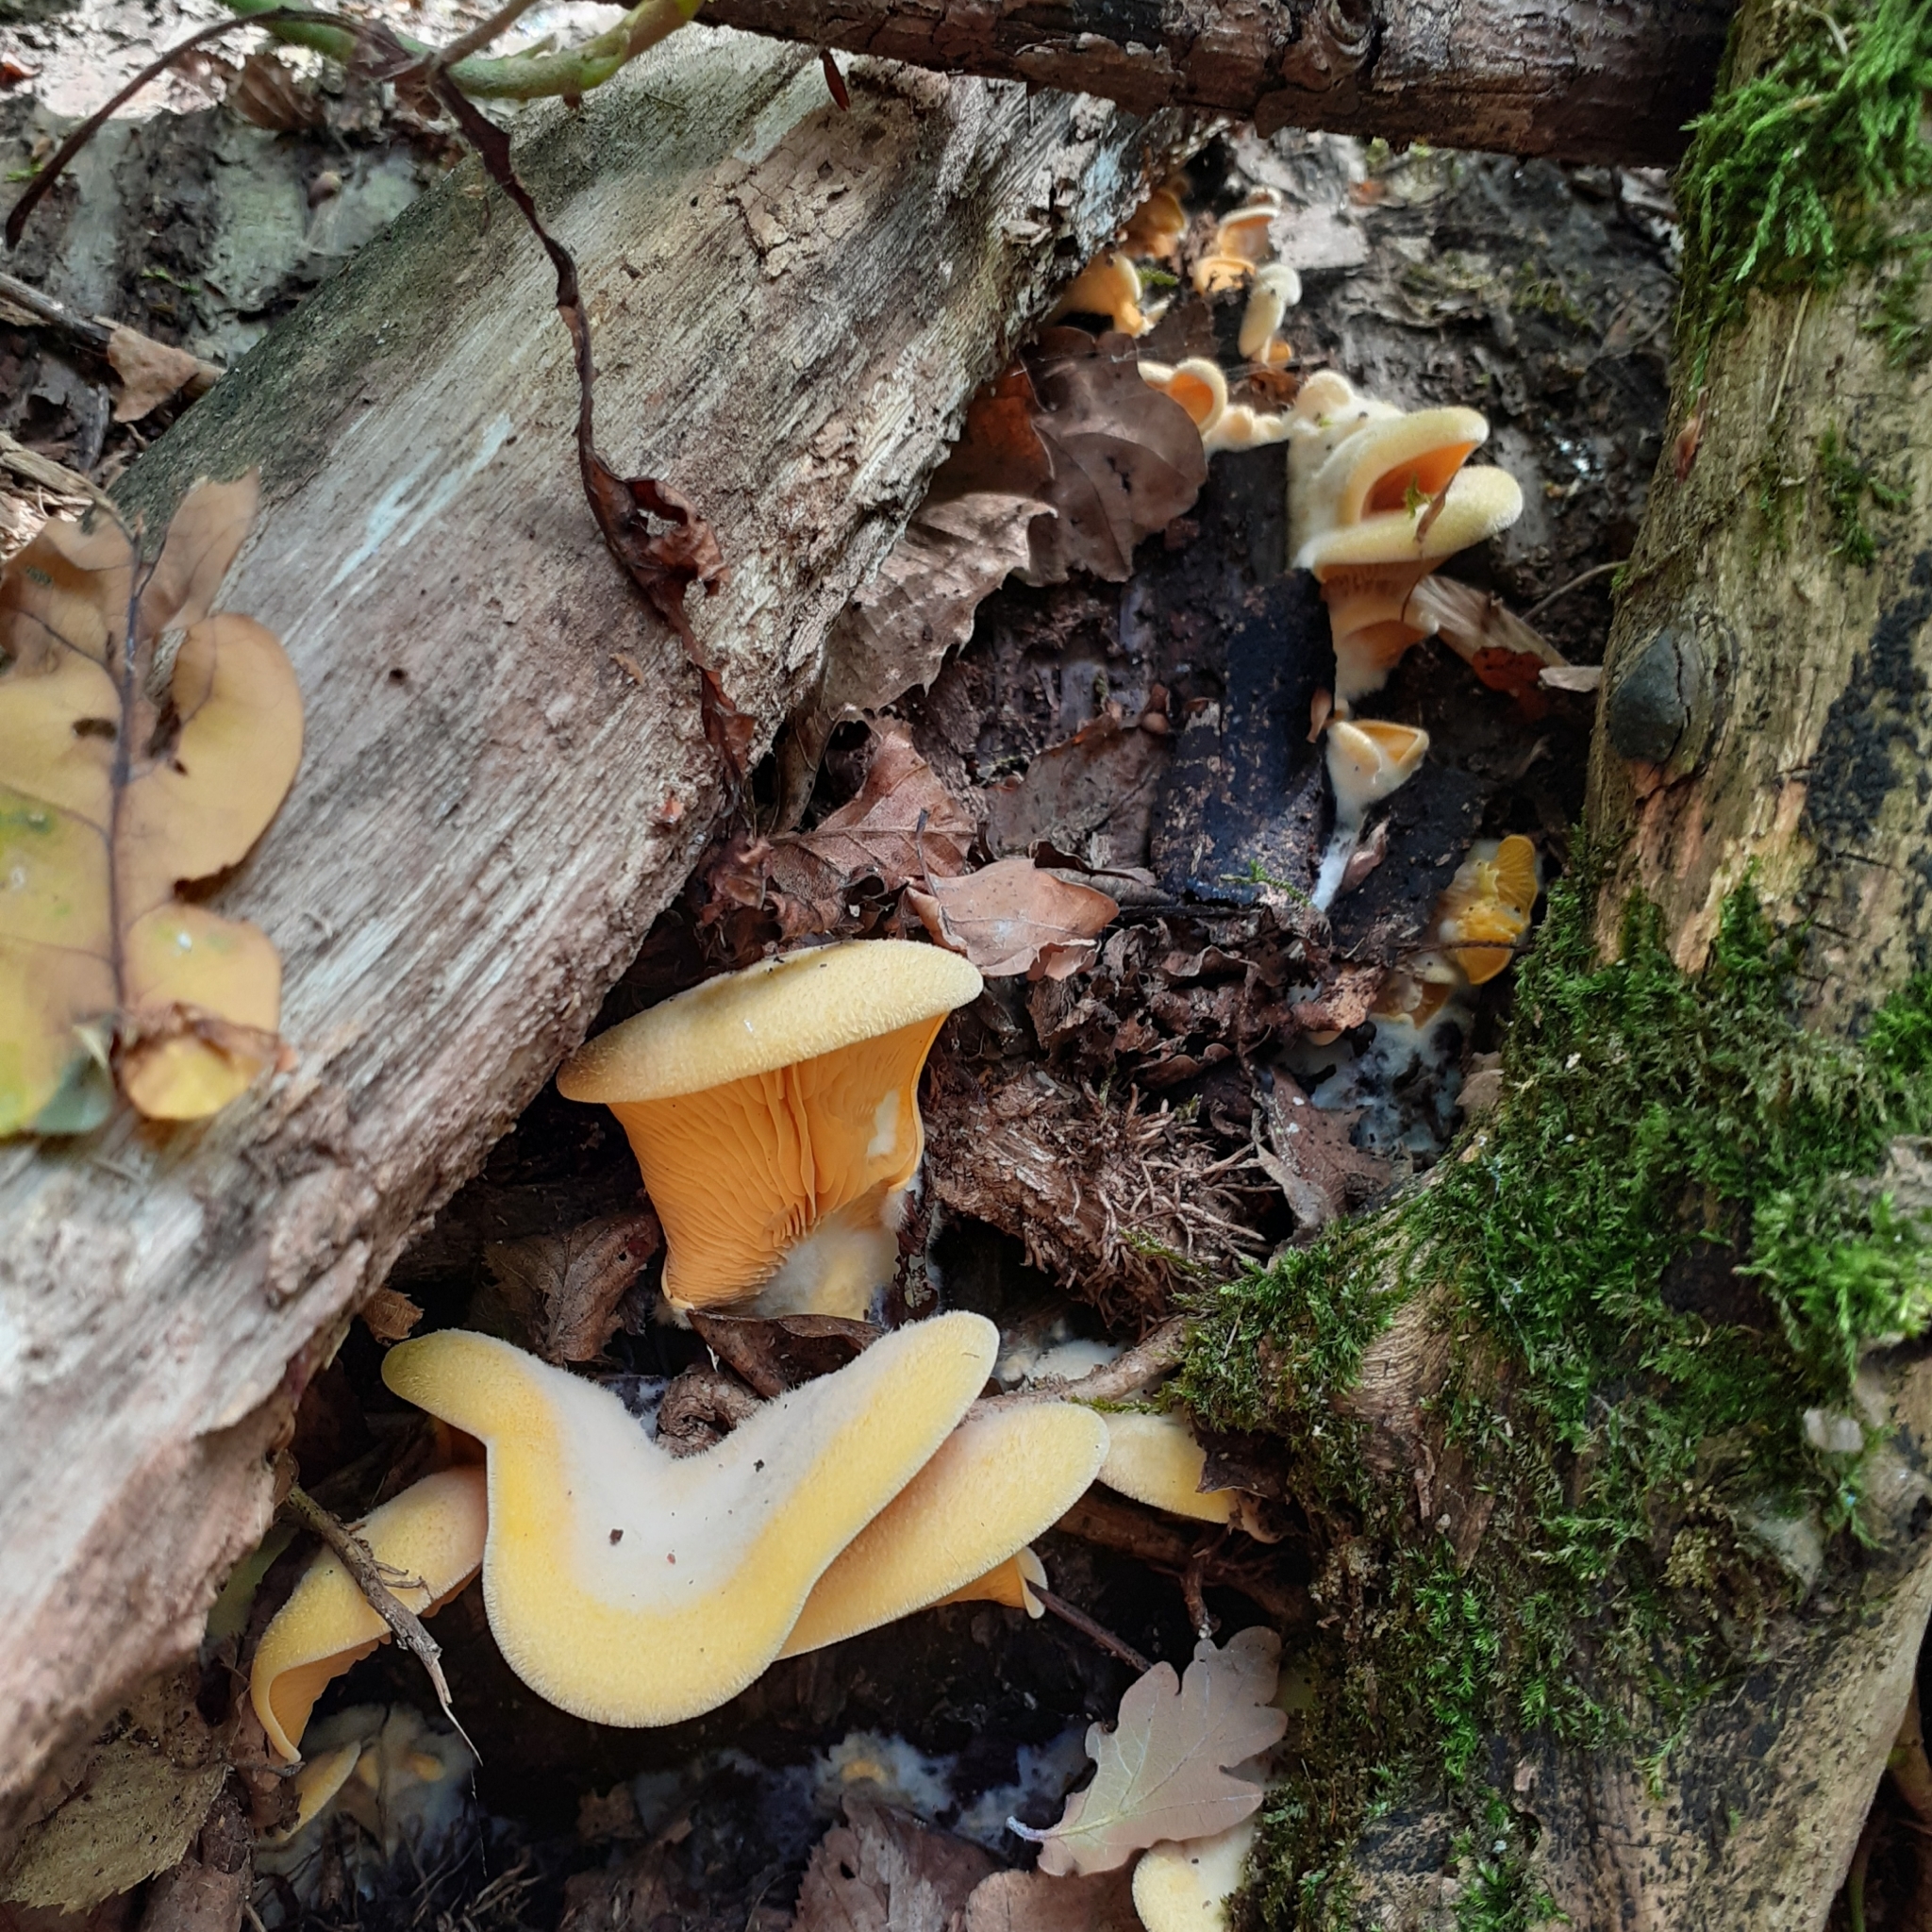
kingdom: Fungi
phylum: Basidiomycota
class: Agaricomycetes
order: Agaricales
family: Phyllotopsidaceae
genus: Phyllotopsis
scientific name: Phyllotopsis nidulans
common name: Orange mock oyster
